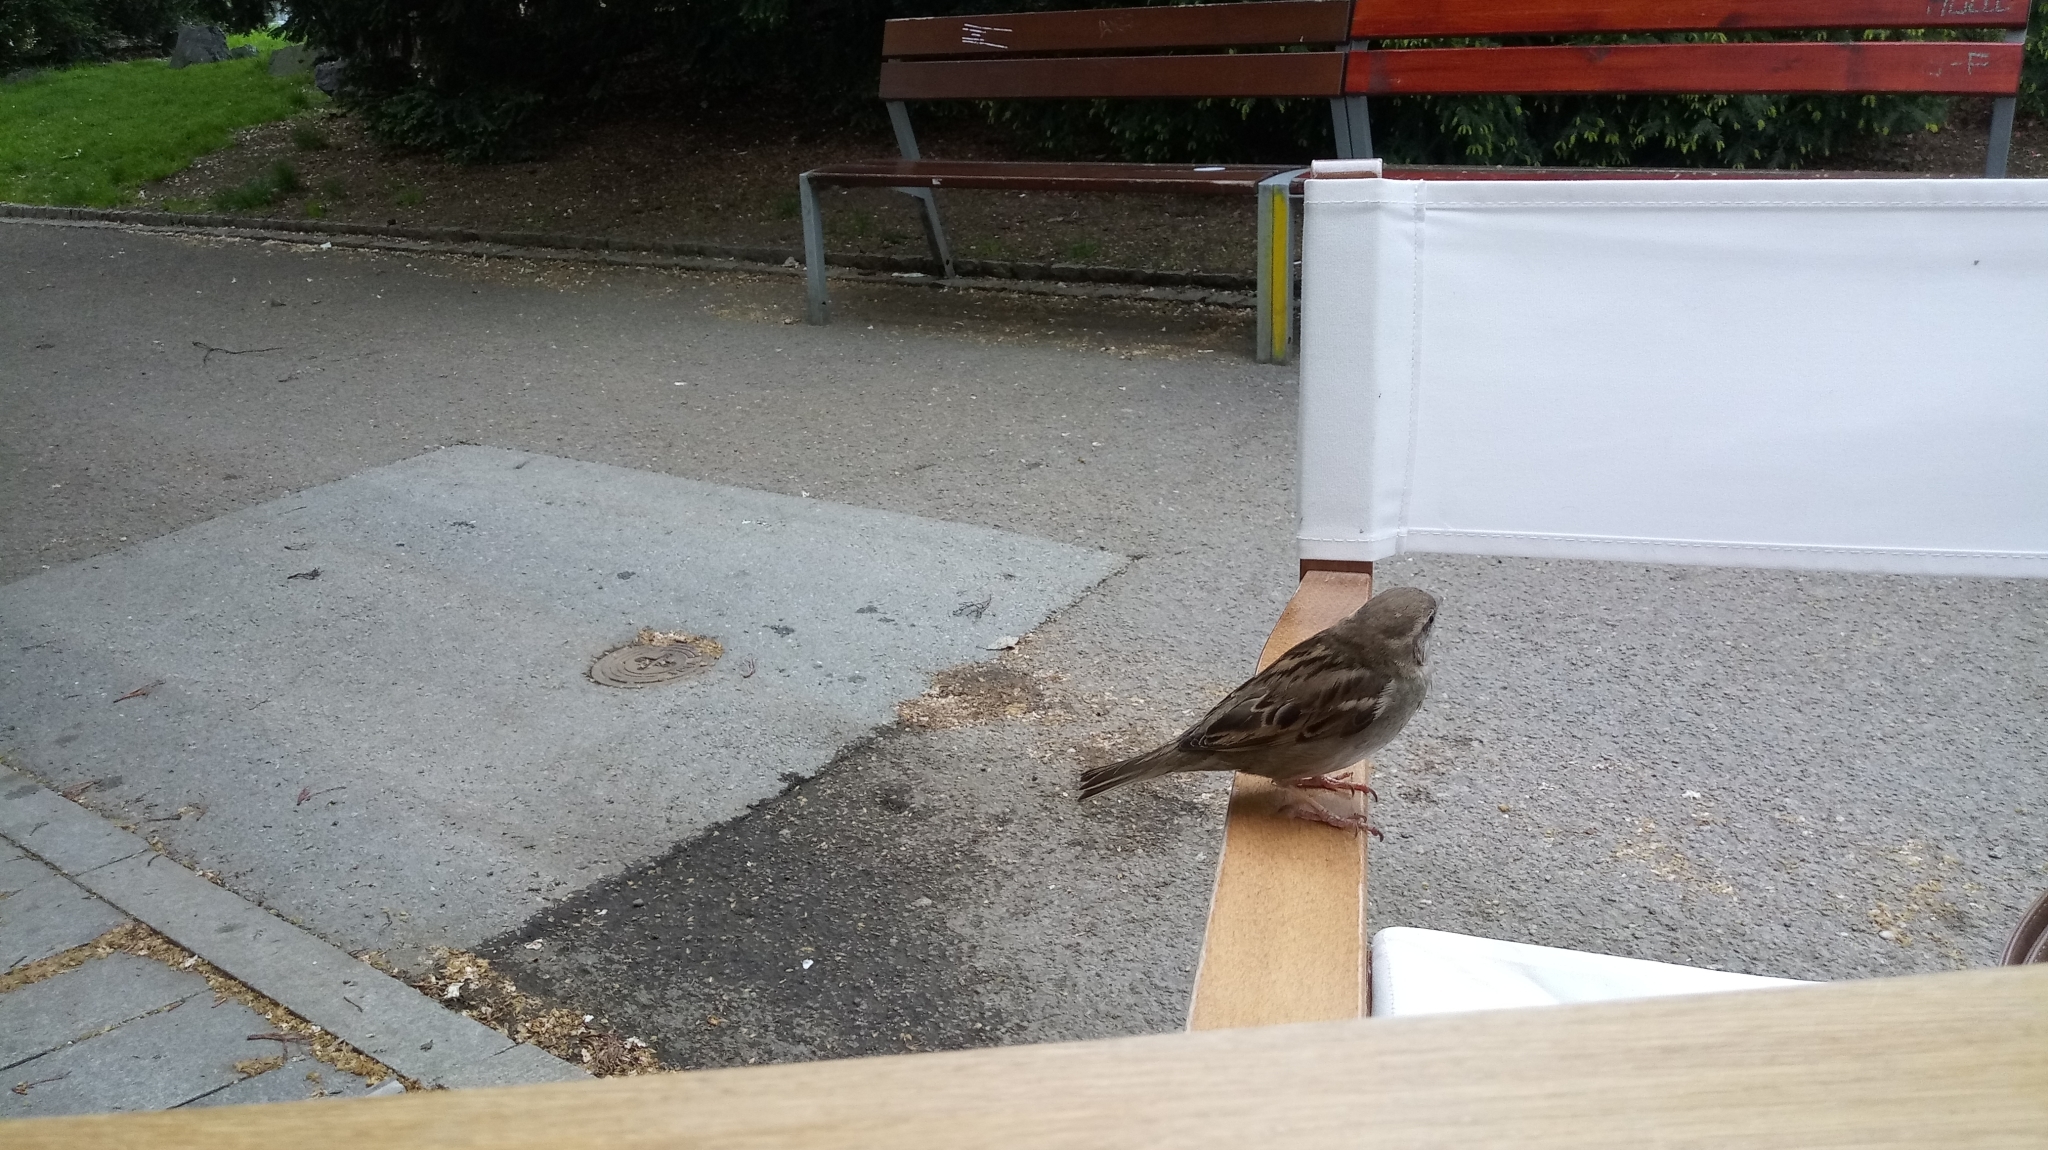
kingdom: Animalia
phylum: Chordata
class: Aves
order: Passeriformes
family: Passeridae
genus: Passer
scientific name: Passer domesticus
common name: House sparrow
